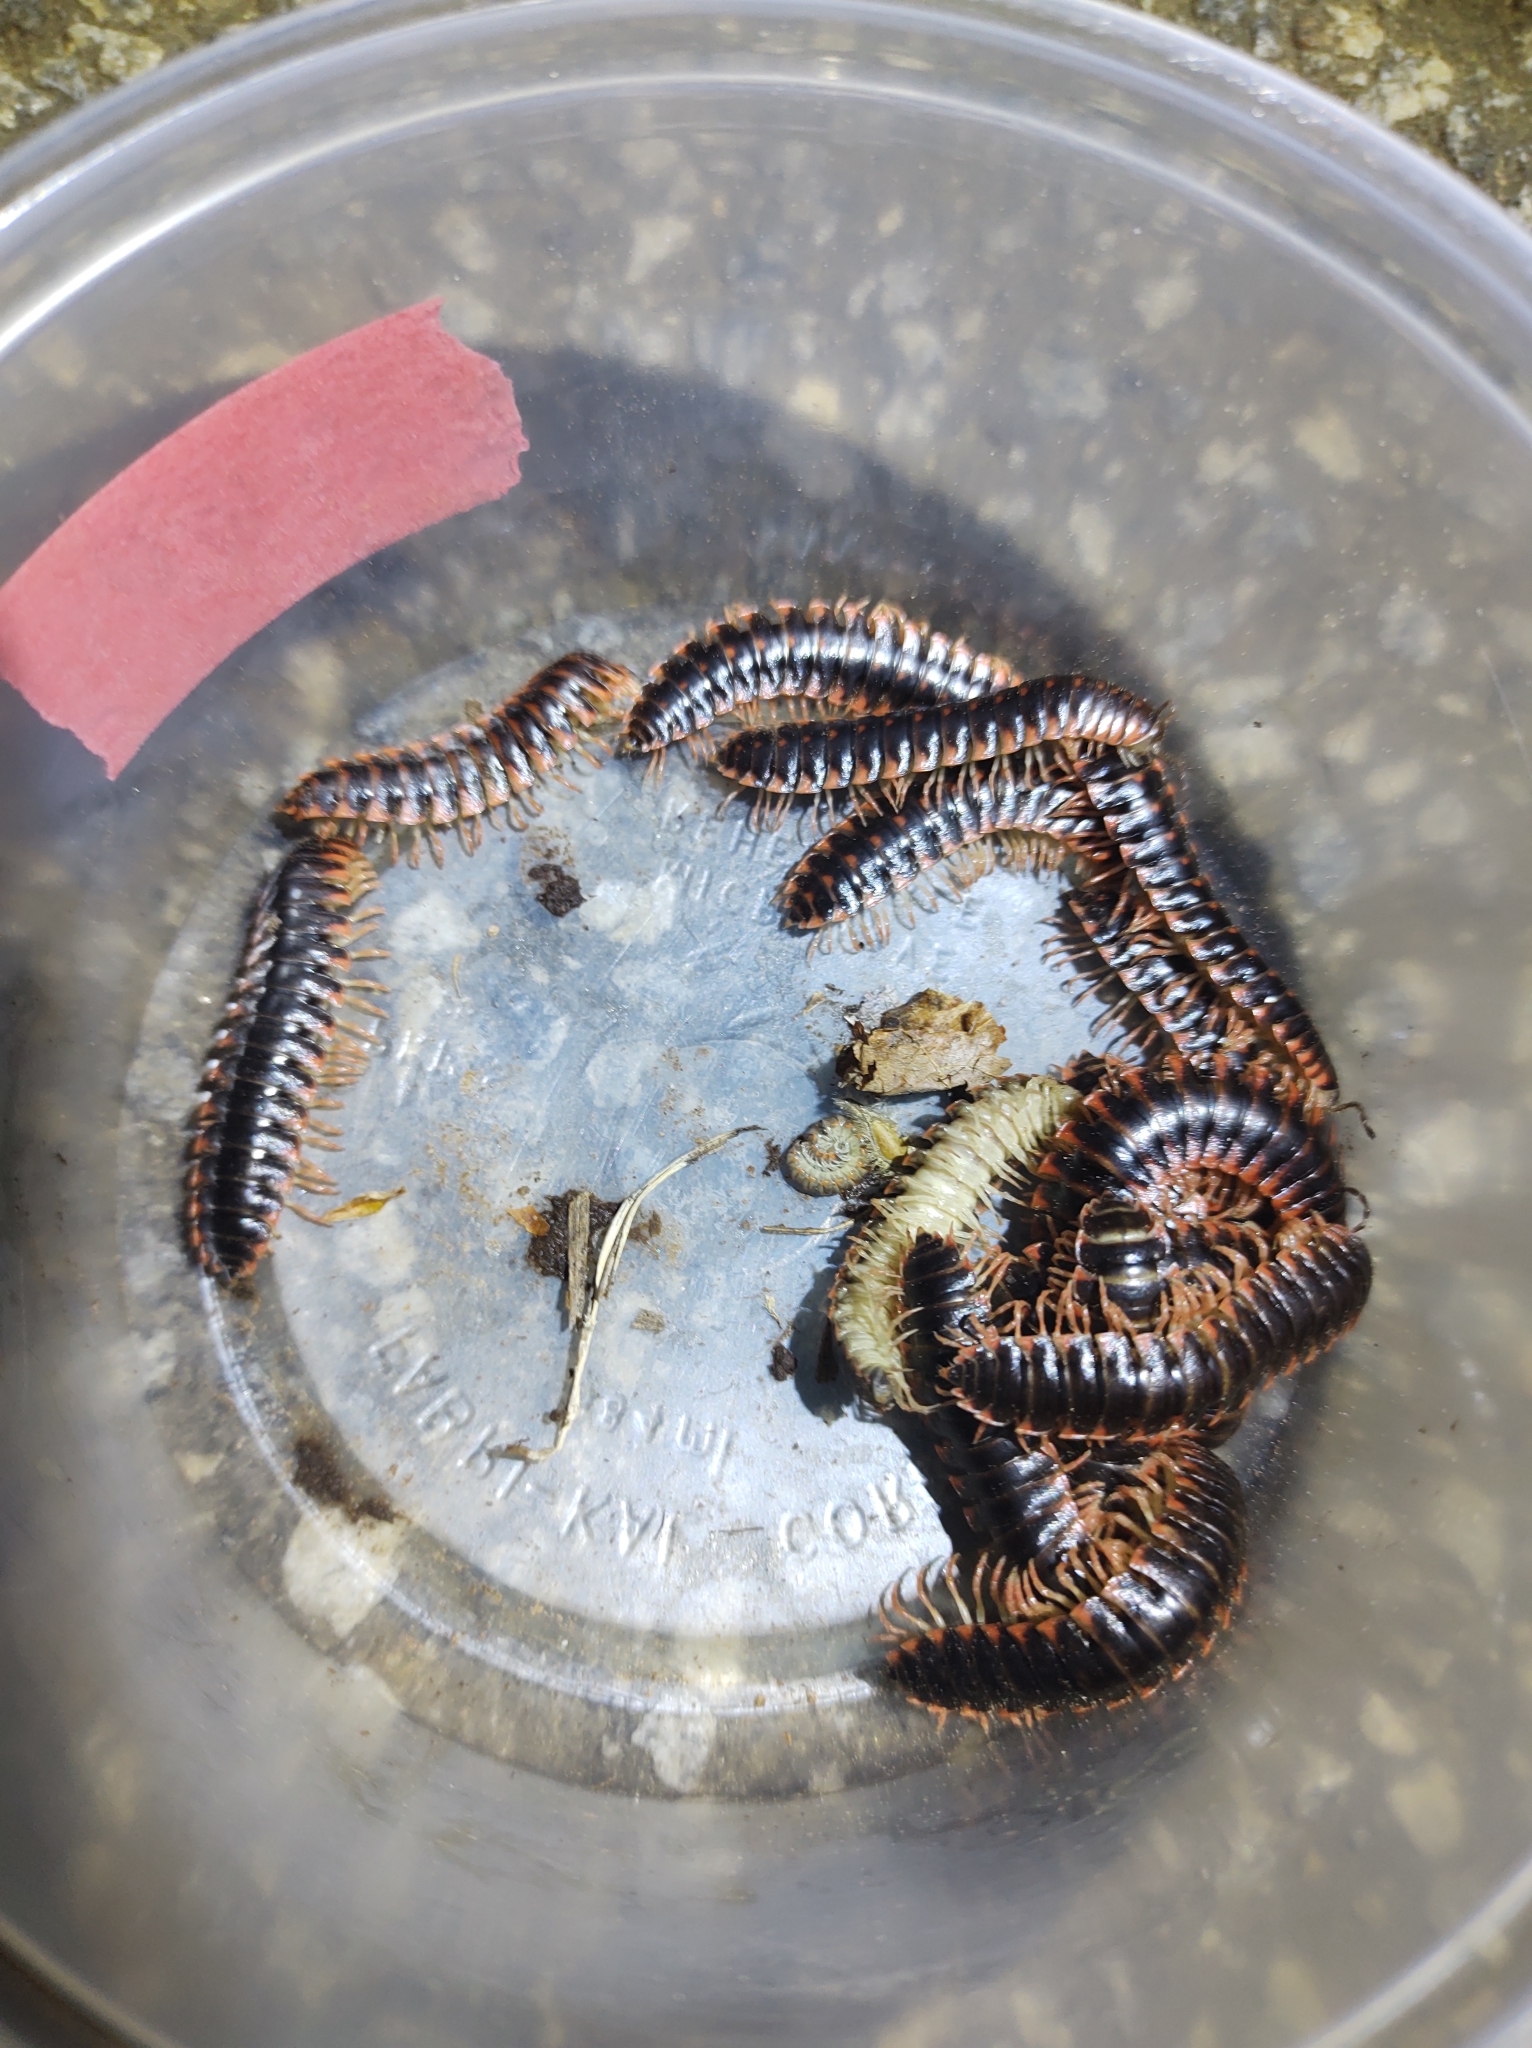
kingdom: Animalia
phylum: Arthropoda
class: Diplopoda
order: Polydesmida
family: Xystodesmidae
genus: Cherokia
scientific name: Cherokia georgiana
